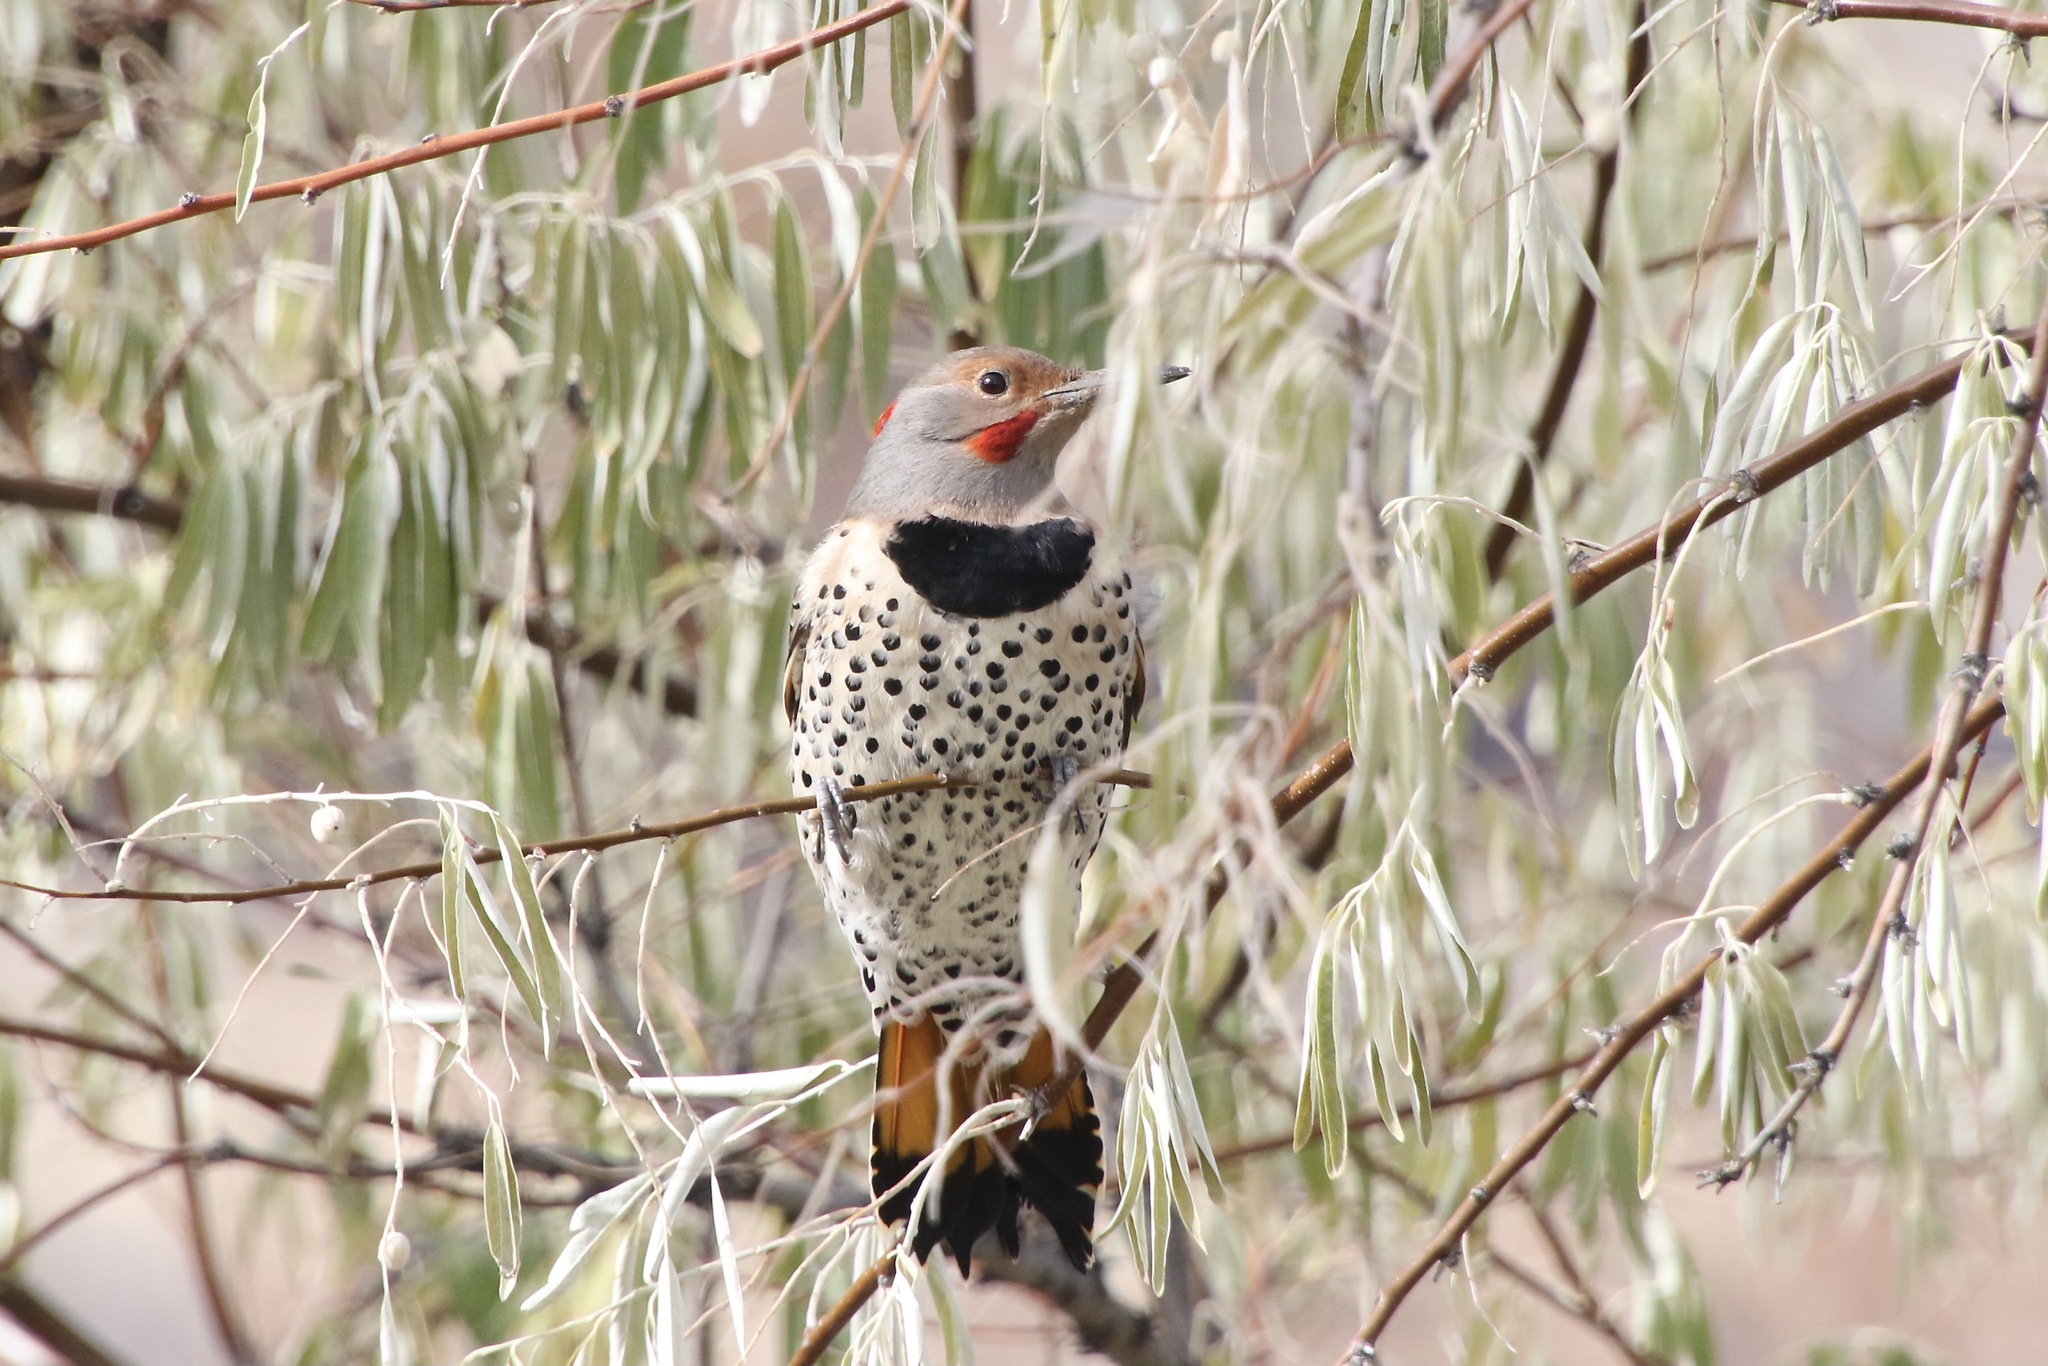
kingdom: Animalia
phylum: Chordata
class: Aves
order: Piciformes
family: Picidae
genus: Colaptes
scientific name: Colaptes
